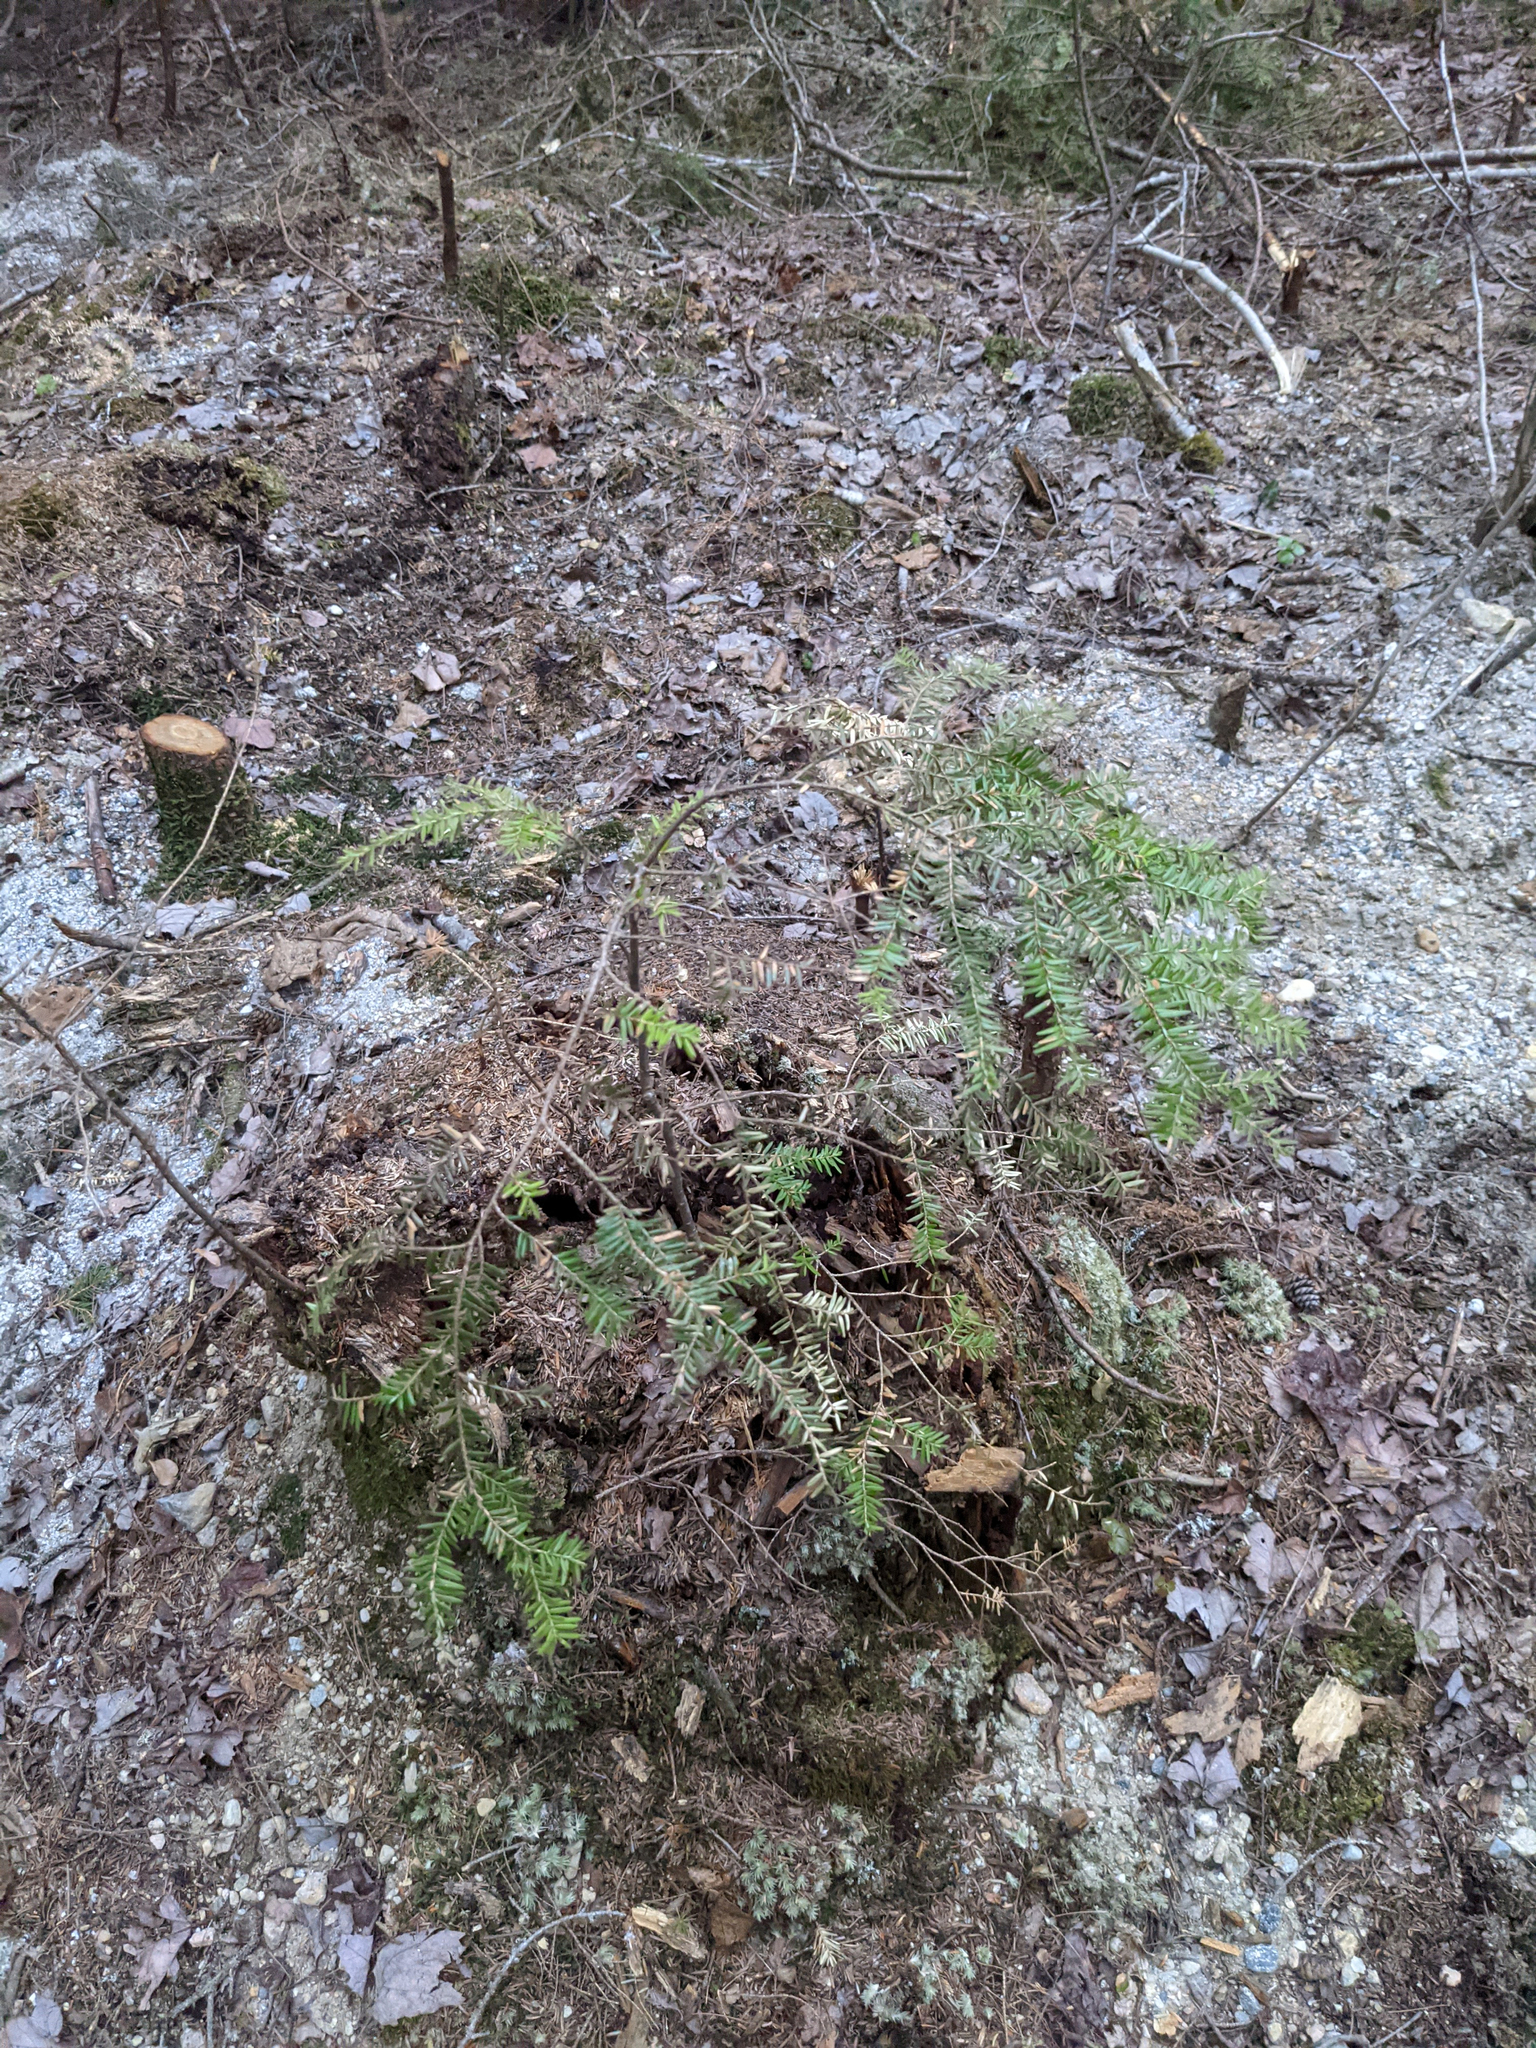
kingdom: Plantae
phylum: Tracheophyta
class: Pinopsida
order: Pinales
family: Pinaceae
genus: Tsuga
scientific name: Tsuga canadensis
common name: Eastern hemlock
